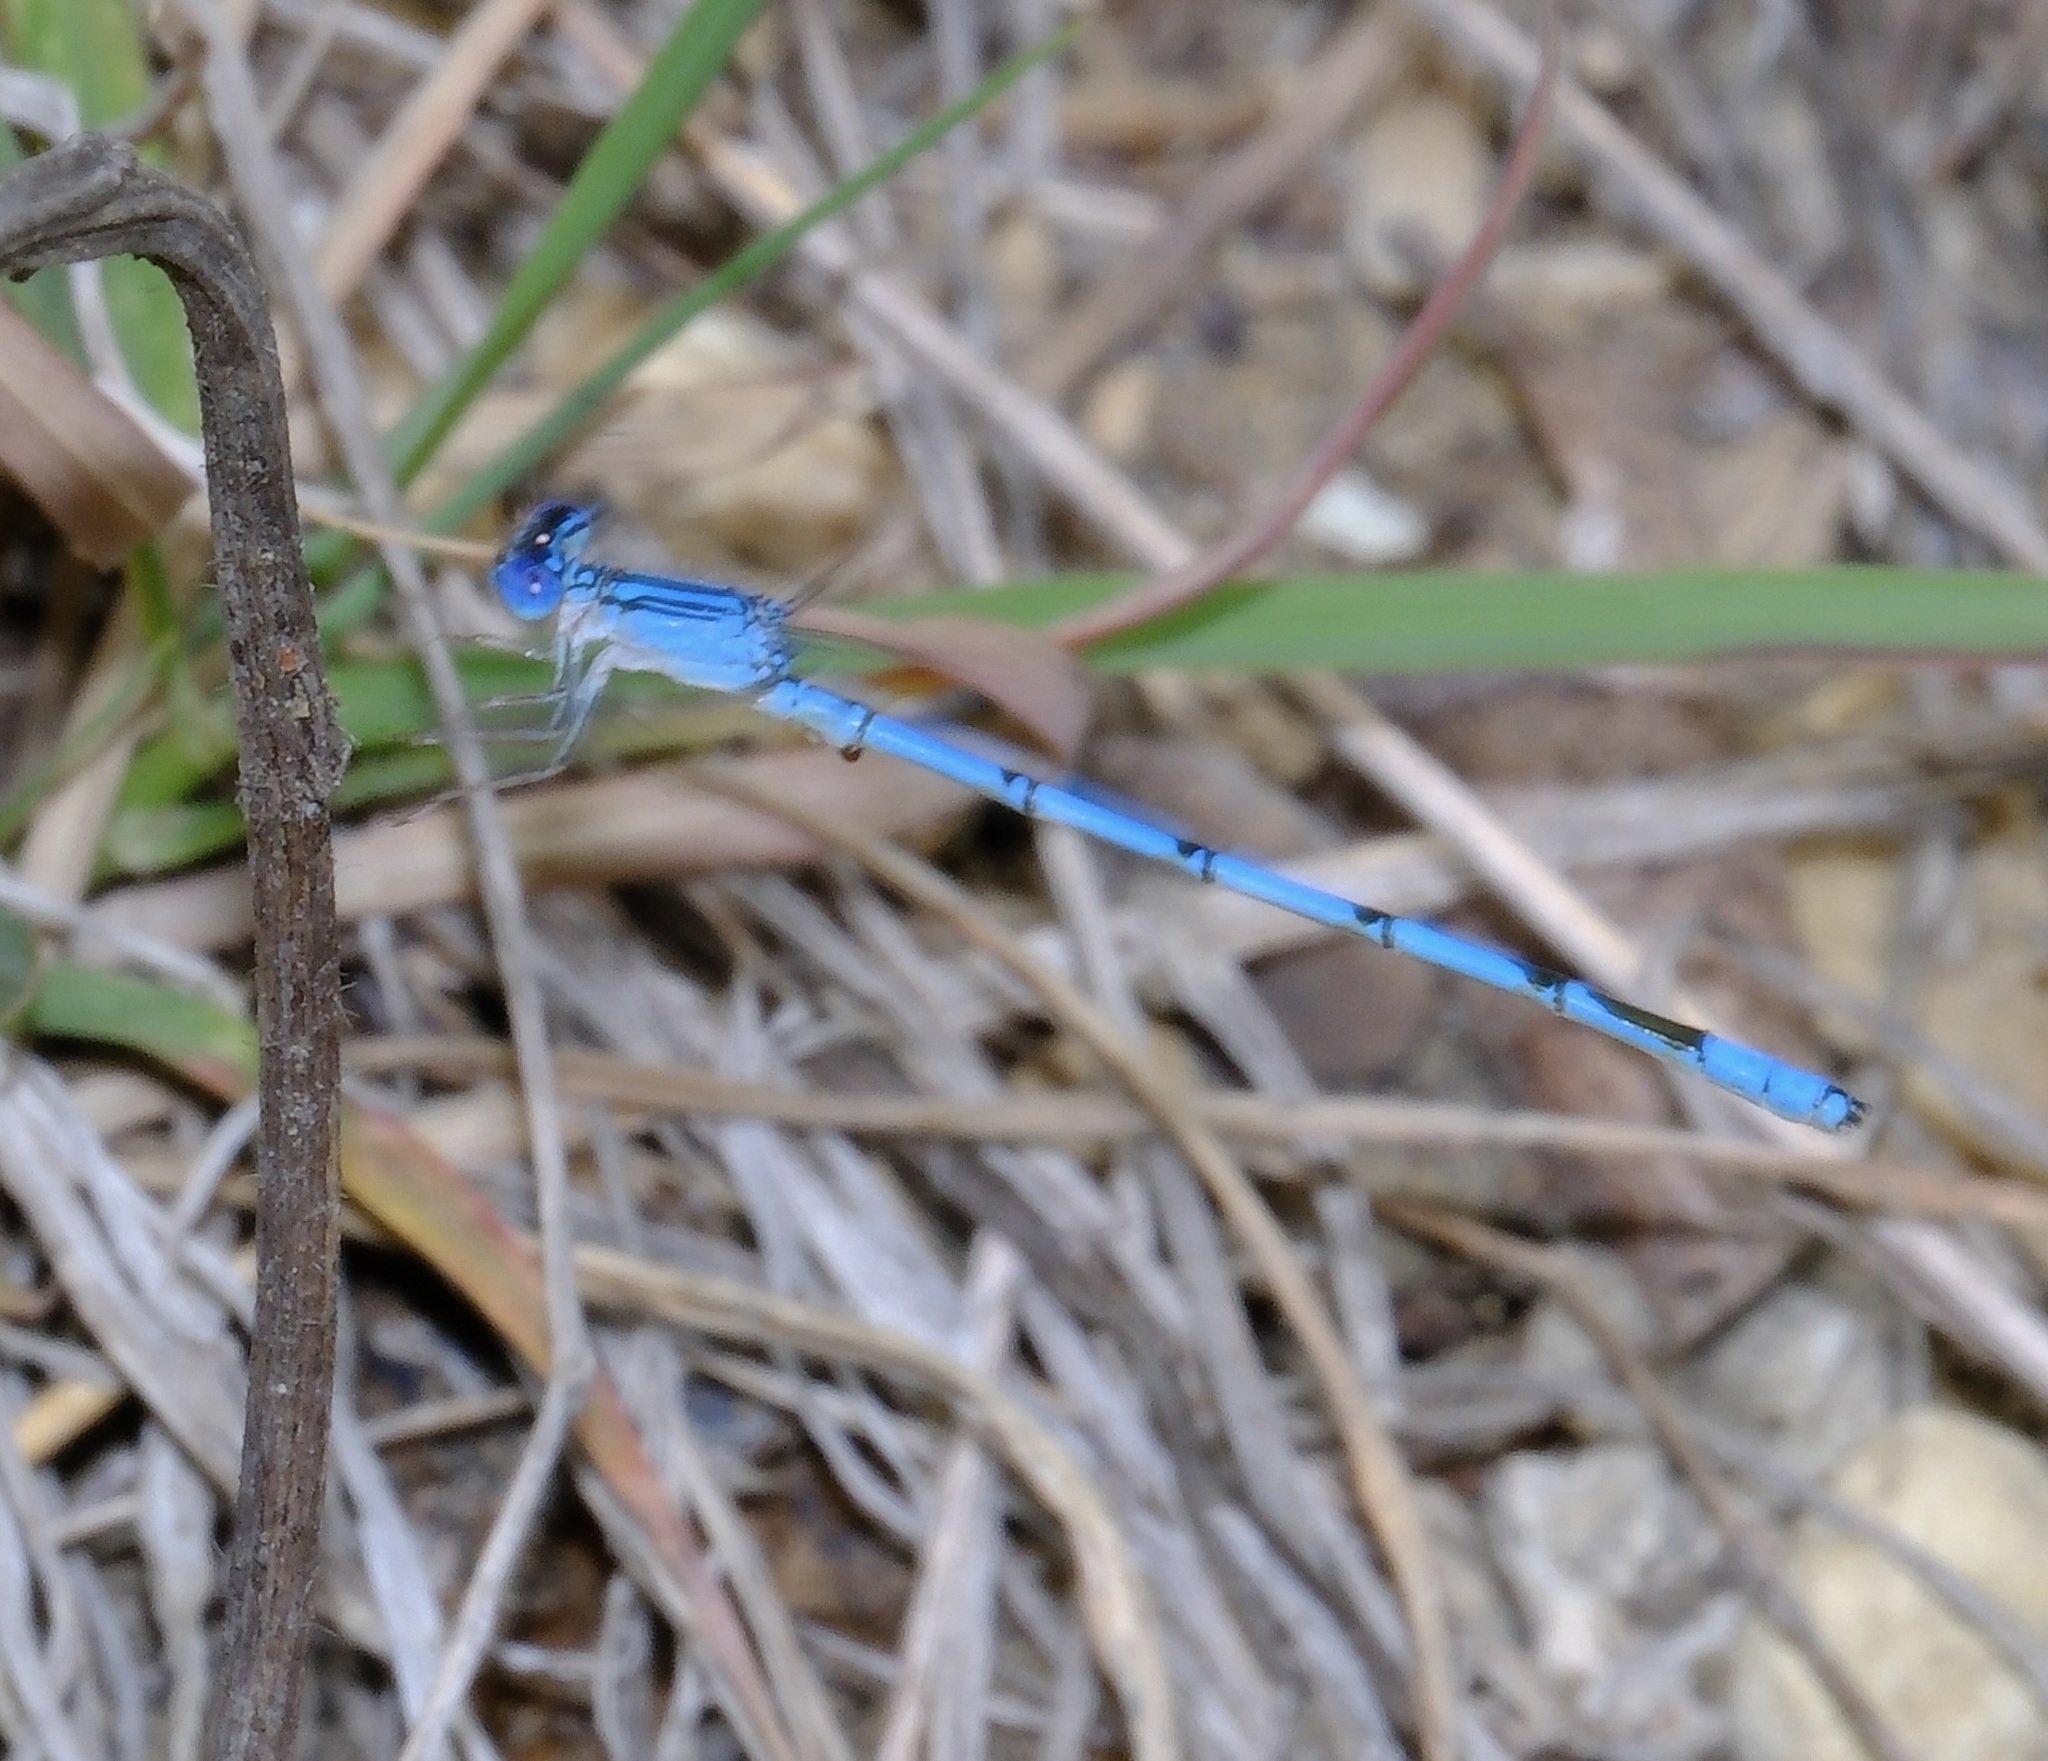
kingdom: Animalia
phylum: Arthropoda
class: Insecta
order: Odonata
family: Coenagrionidae
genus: Enallagma
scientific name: Enallagma basidens
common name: Double-striped bluet
